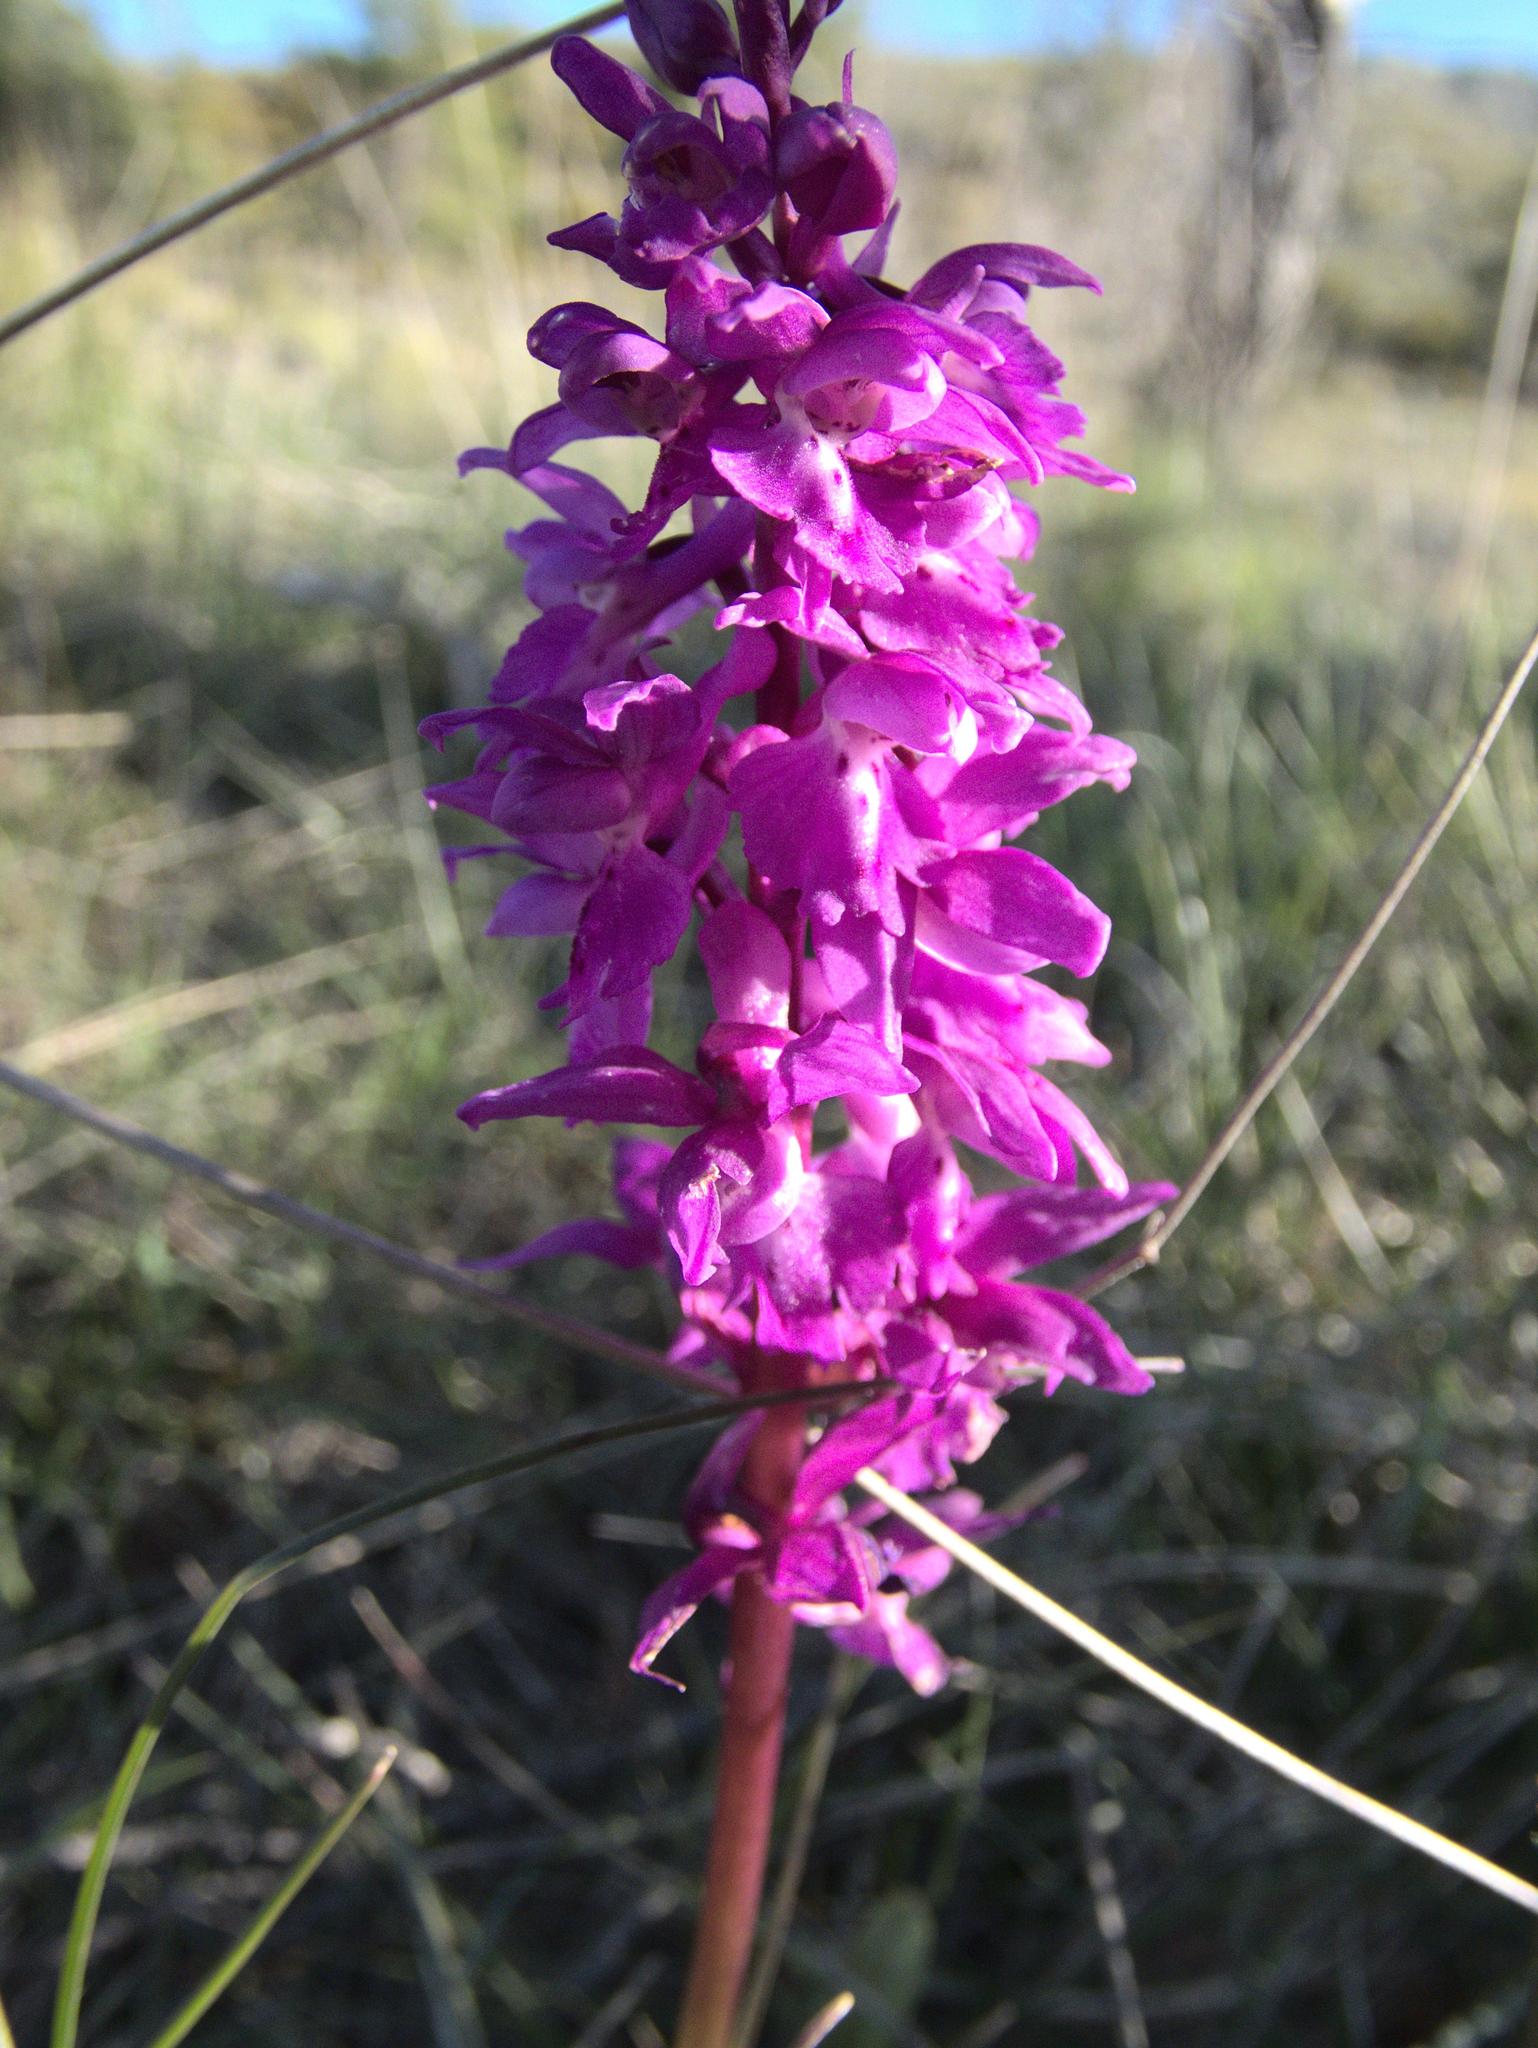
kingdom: Plantae
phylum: Tracheophyta
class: Liliopsida
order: Asparagales
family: Orchidaceae
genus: Orchis
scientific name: Orchis mascula
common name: Early-purple orchid
